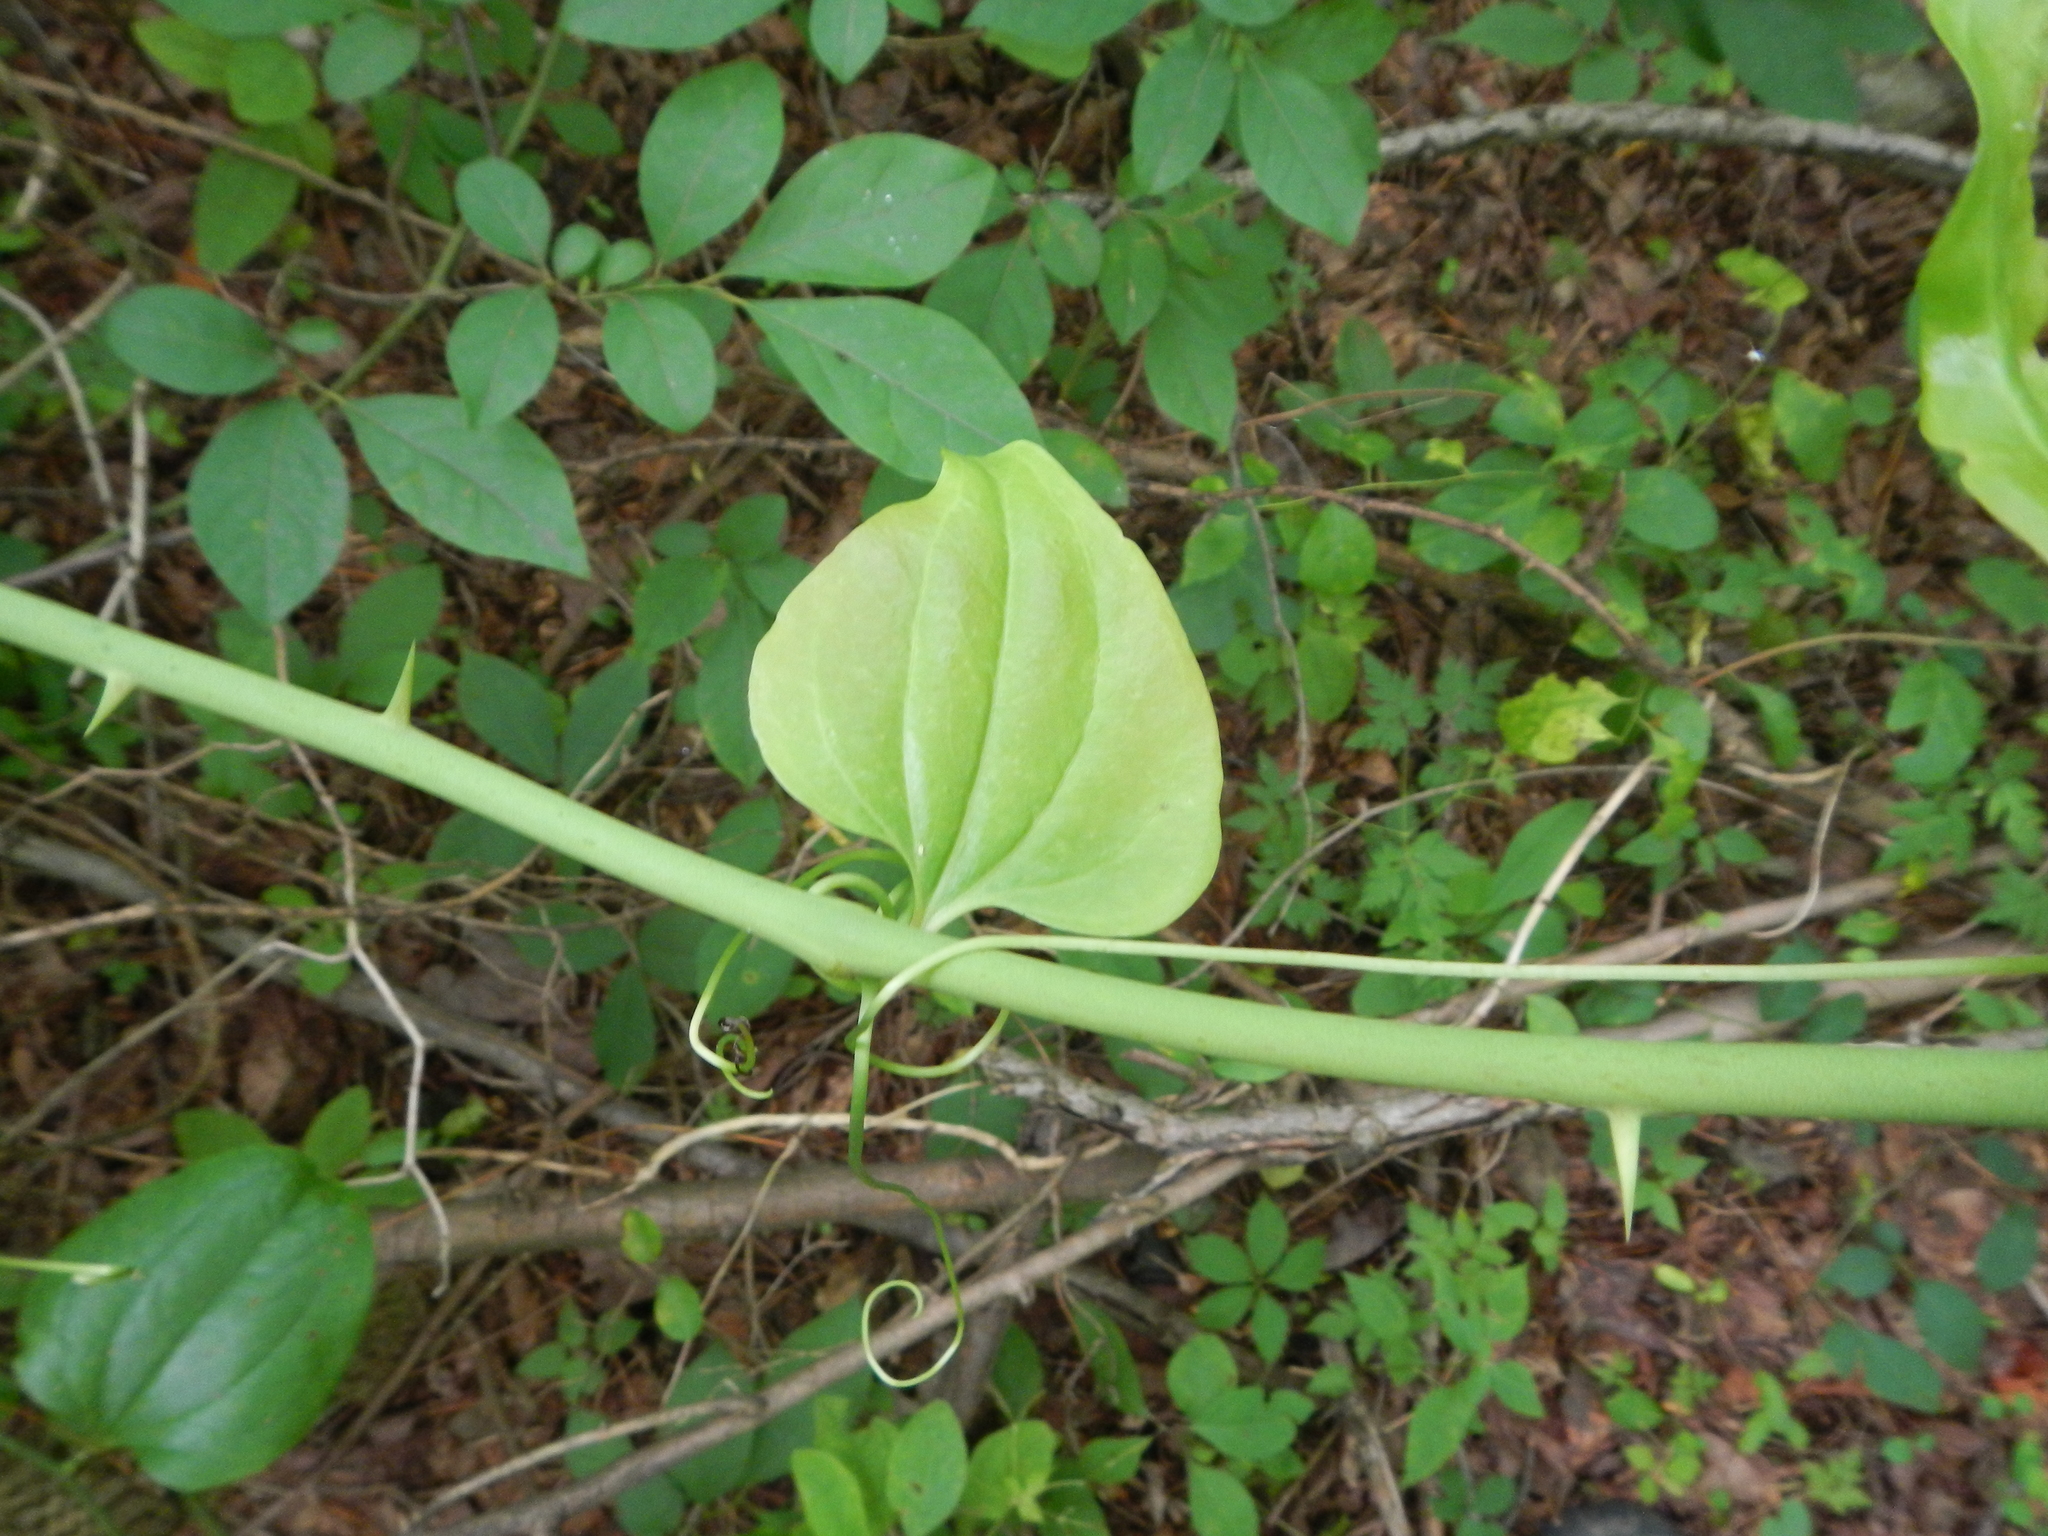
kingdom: Plantae
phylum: Tracheophyta
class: Liliopsida
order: Liliales
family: Smilacaceae
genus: Smilax
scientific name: Smilax rotundifolia
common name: Bullbriar
